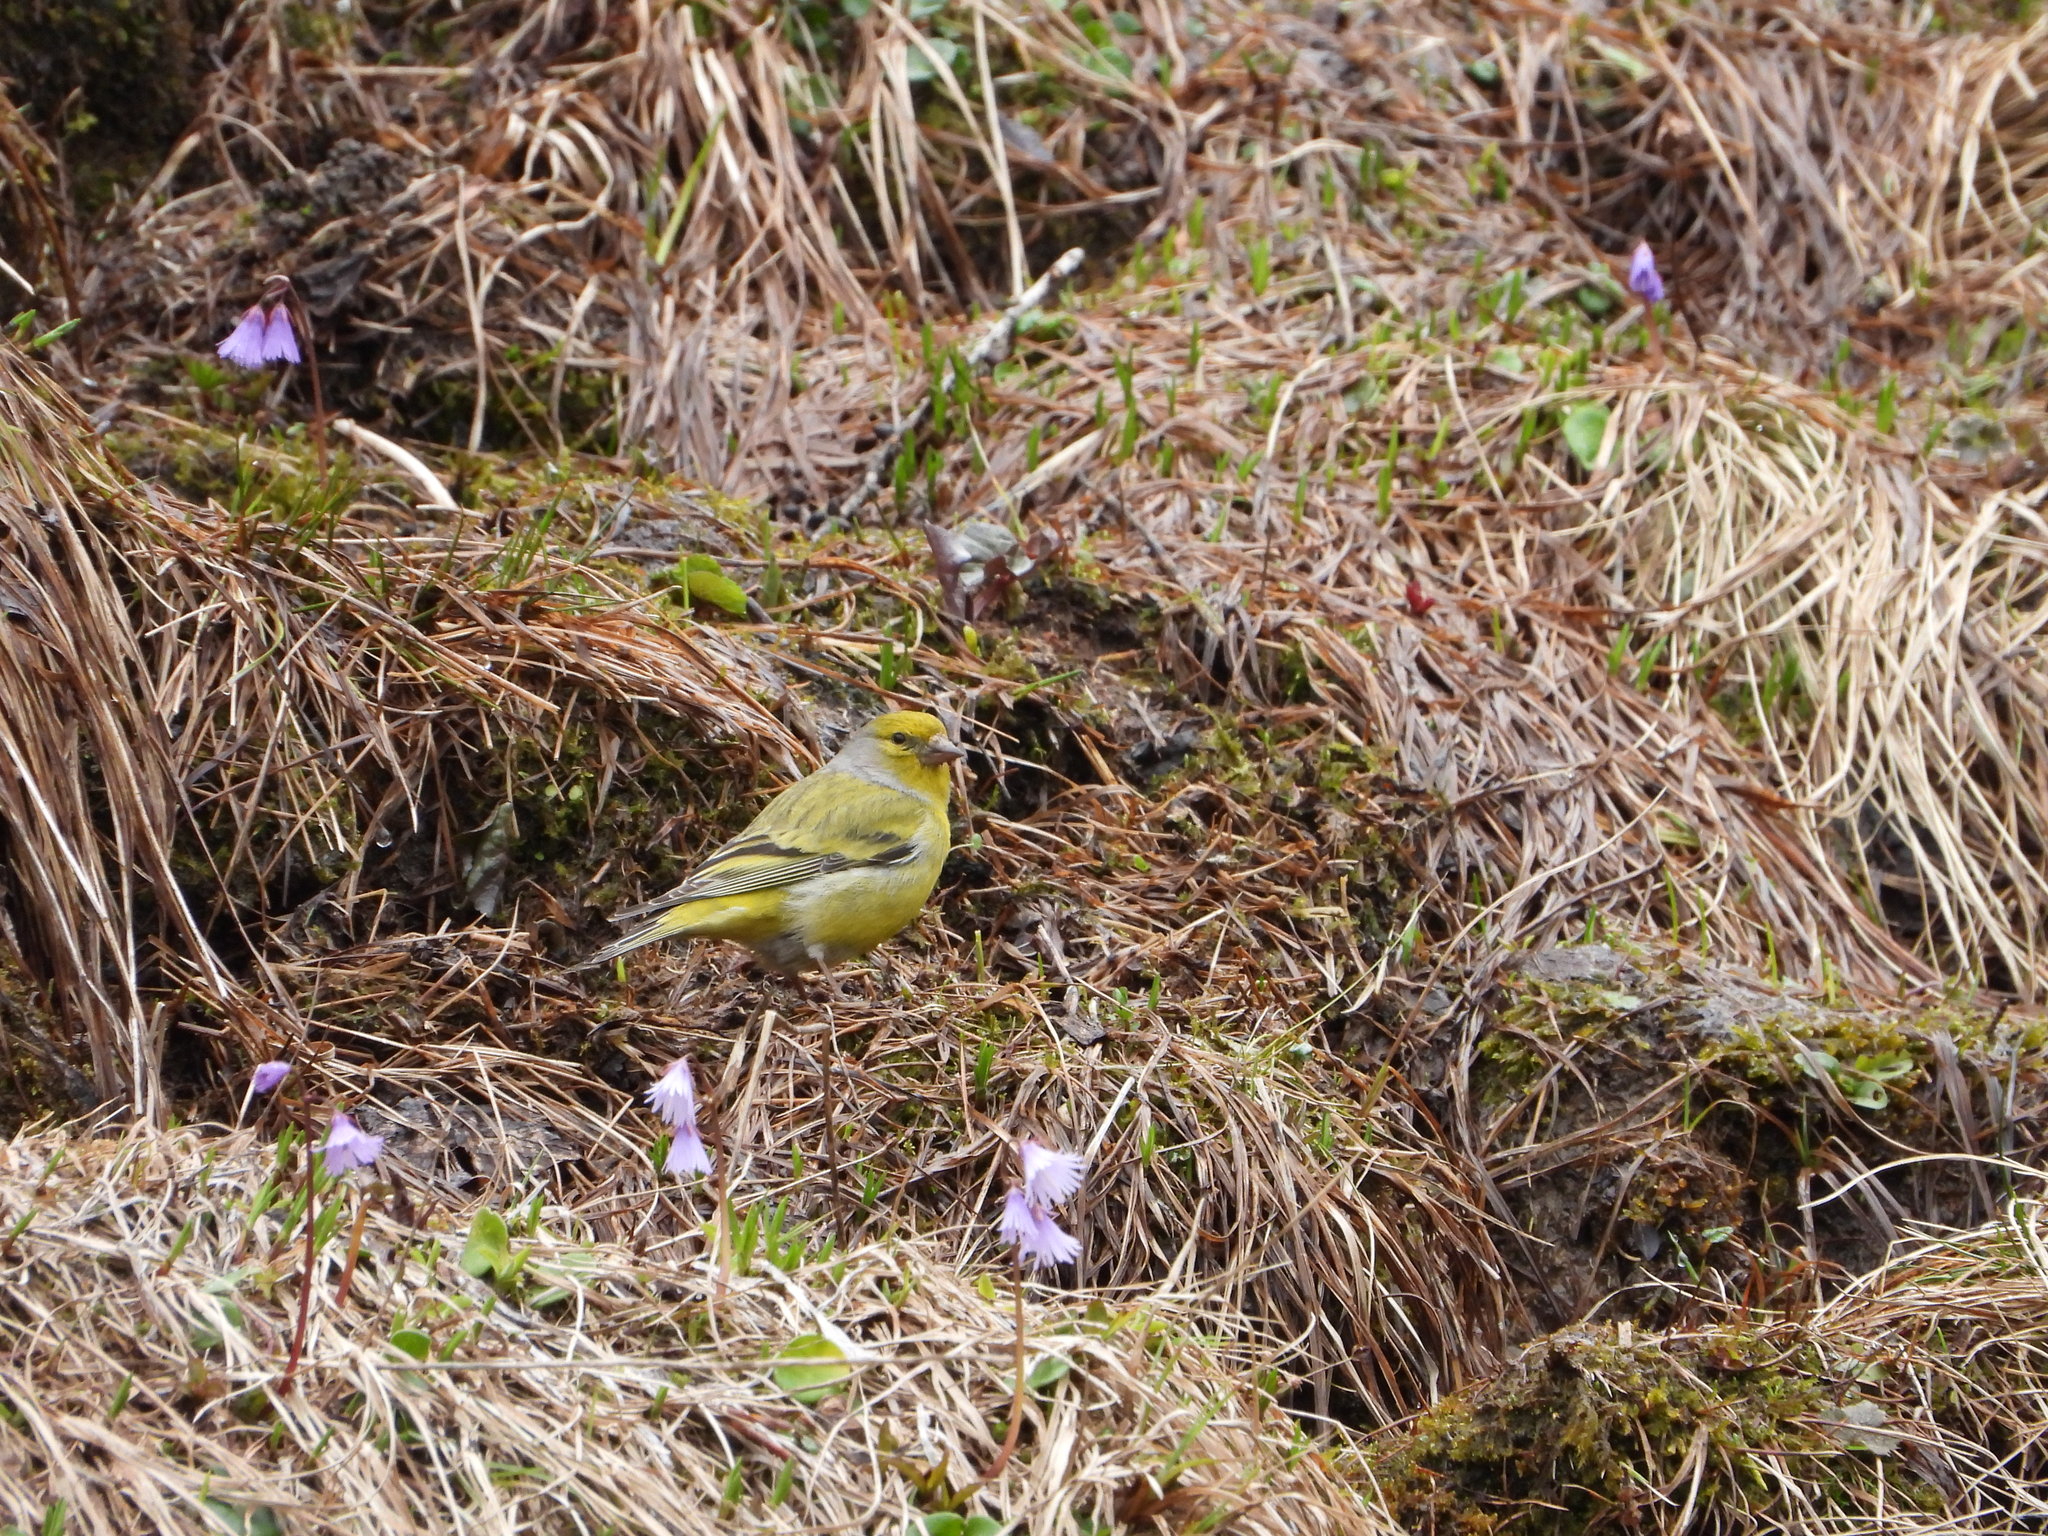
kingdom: Animalia
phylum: Chordata
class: Aves
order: Passeriformes
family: Fringillidae
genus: Carduelis
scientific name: Carduelis citrinella
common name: Citril finch
